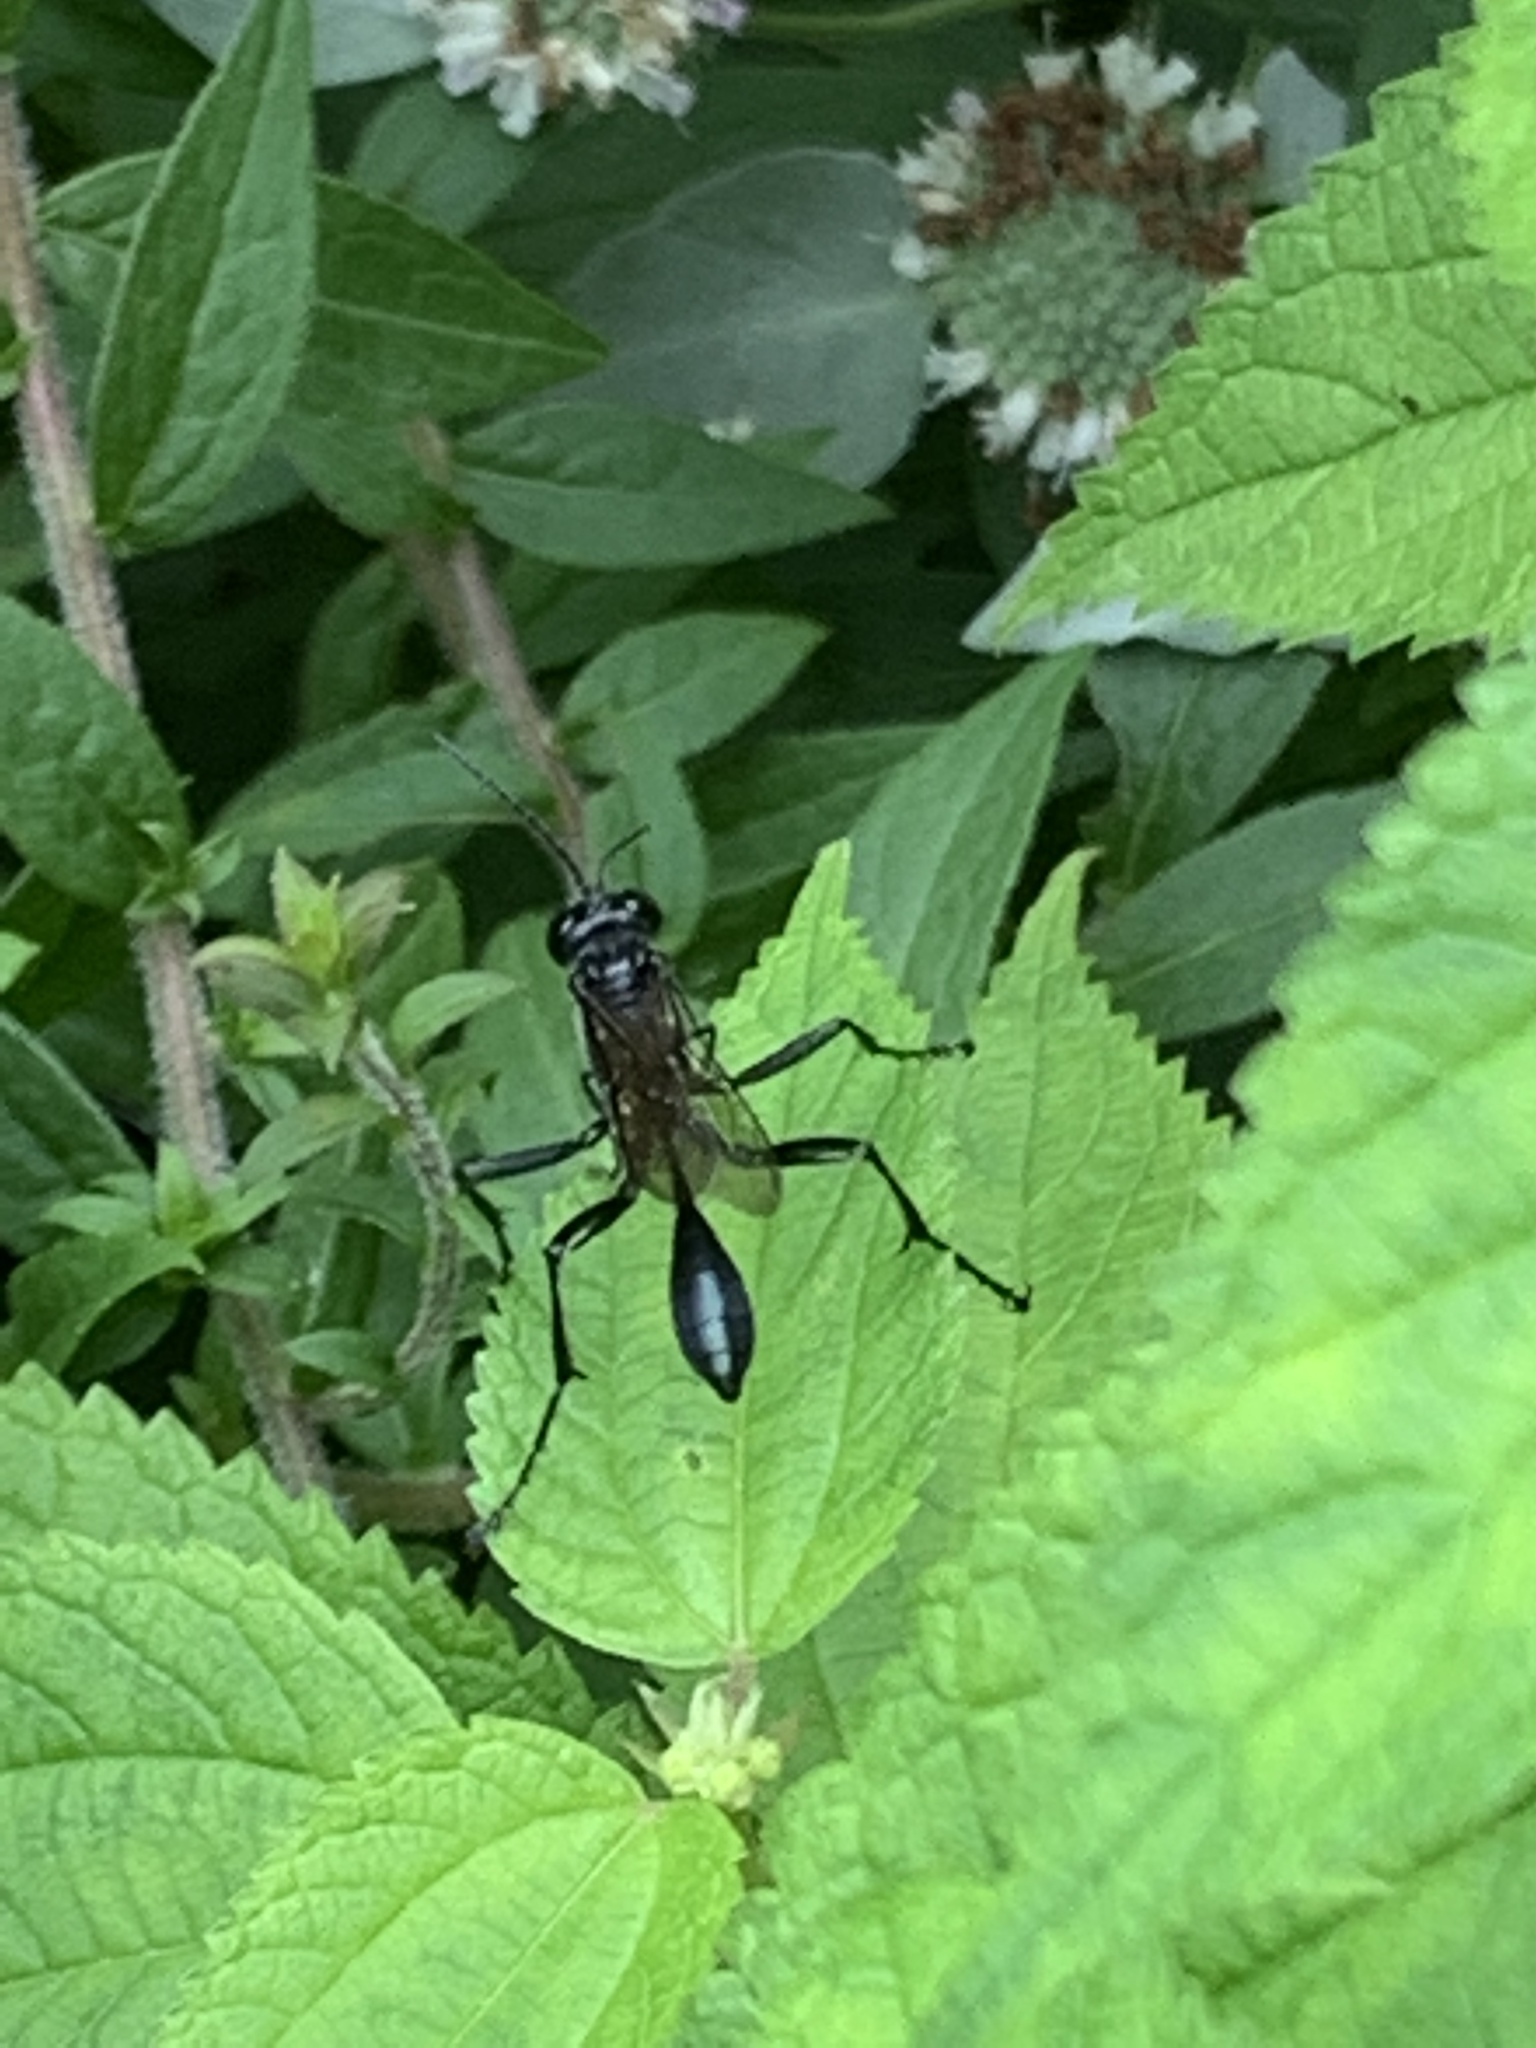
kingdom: Animalia
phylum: Arthropoda
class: Insecta
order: Hymenoptera
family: Sphecidae
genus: Eremnophila
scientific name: Eremnophila aureonotata
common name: Gold-marked thread-waisted wasp
